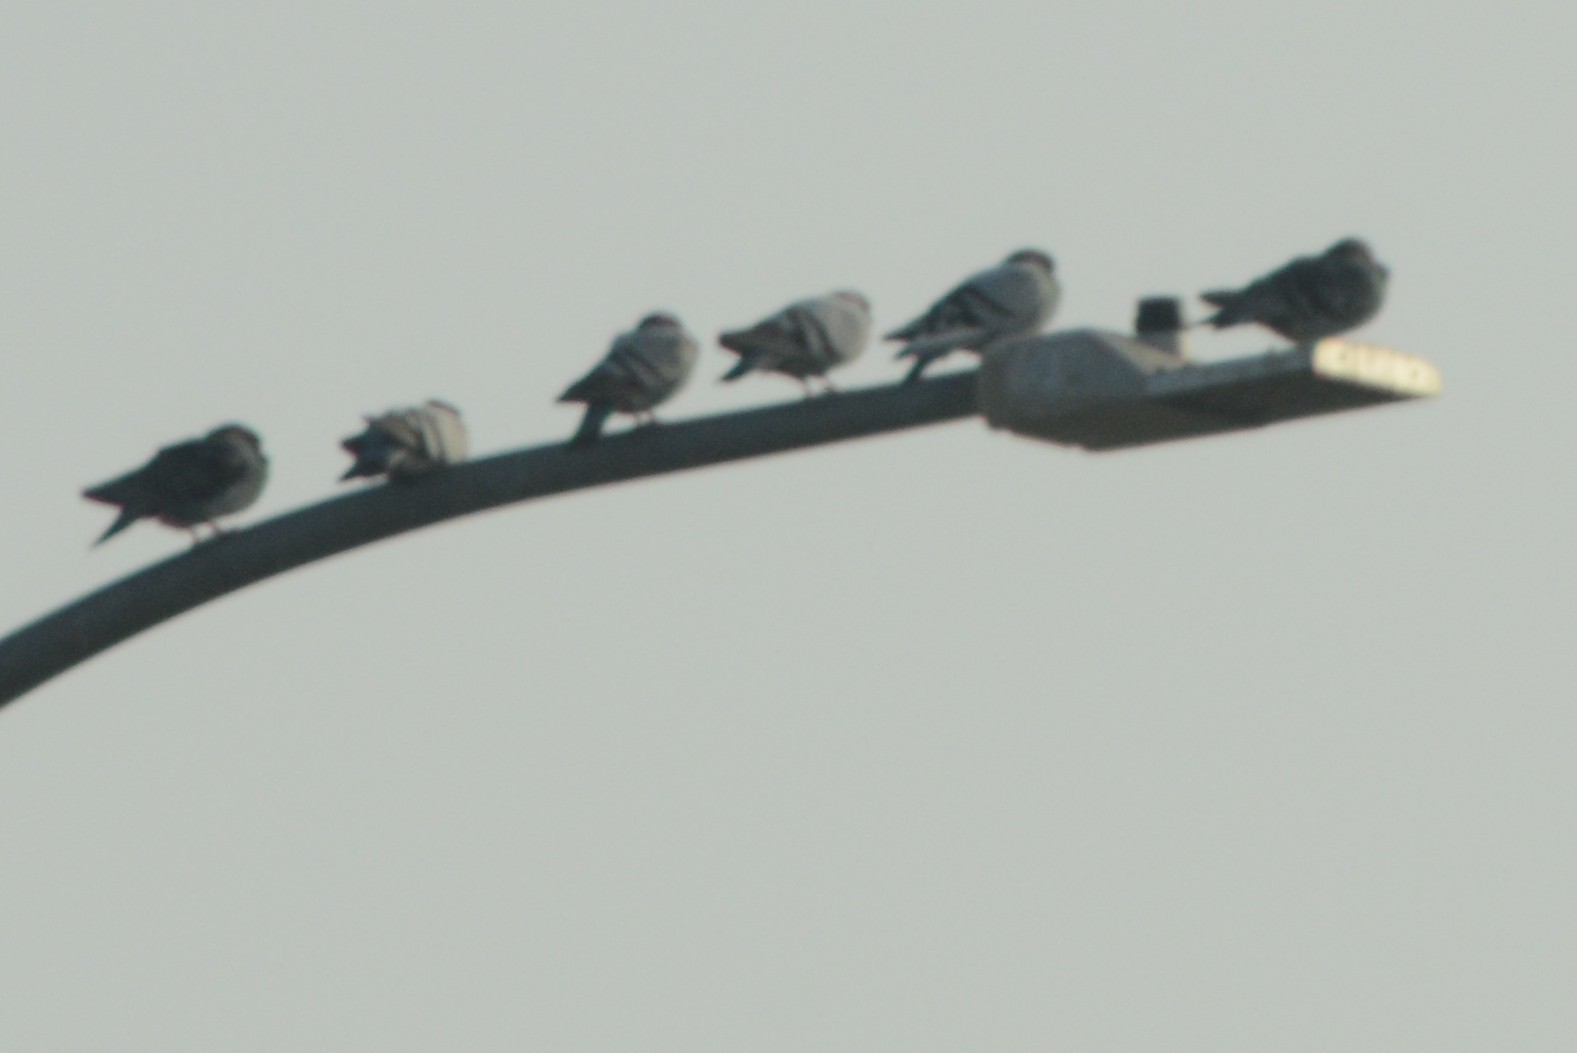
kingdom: Animalia
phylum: Chordata
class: Aves
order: Columbiformes
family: Columbidae
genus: Columba
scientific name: Columba livia
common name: Rock pigeon
